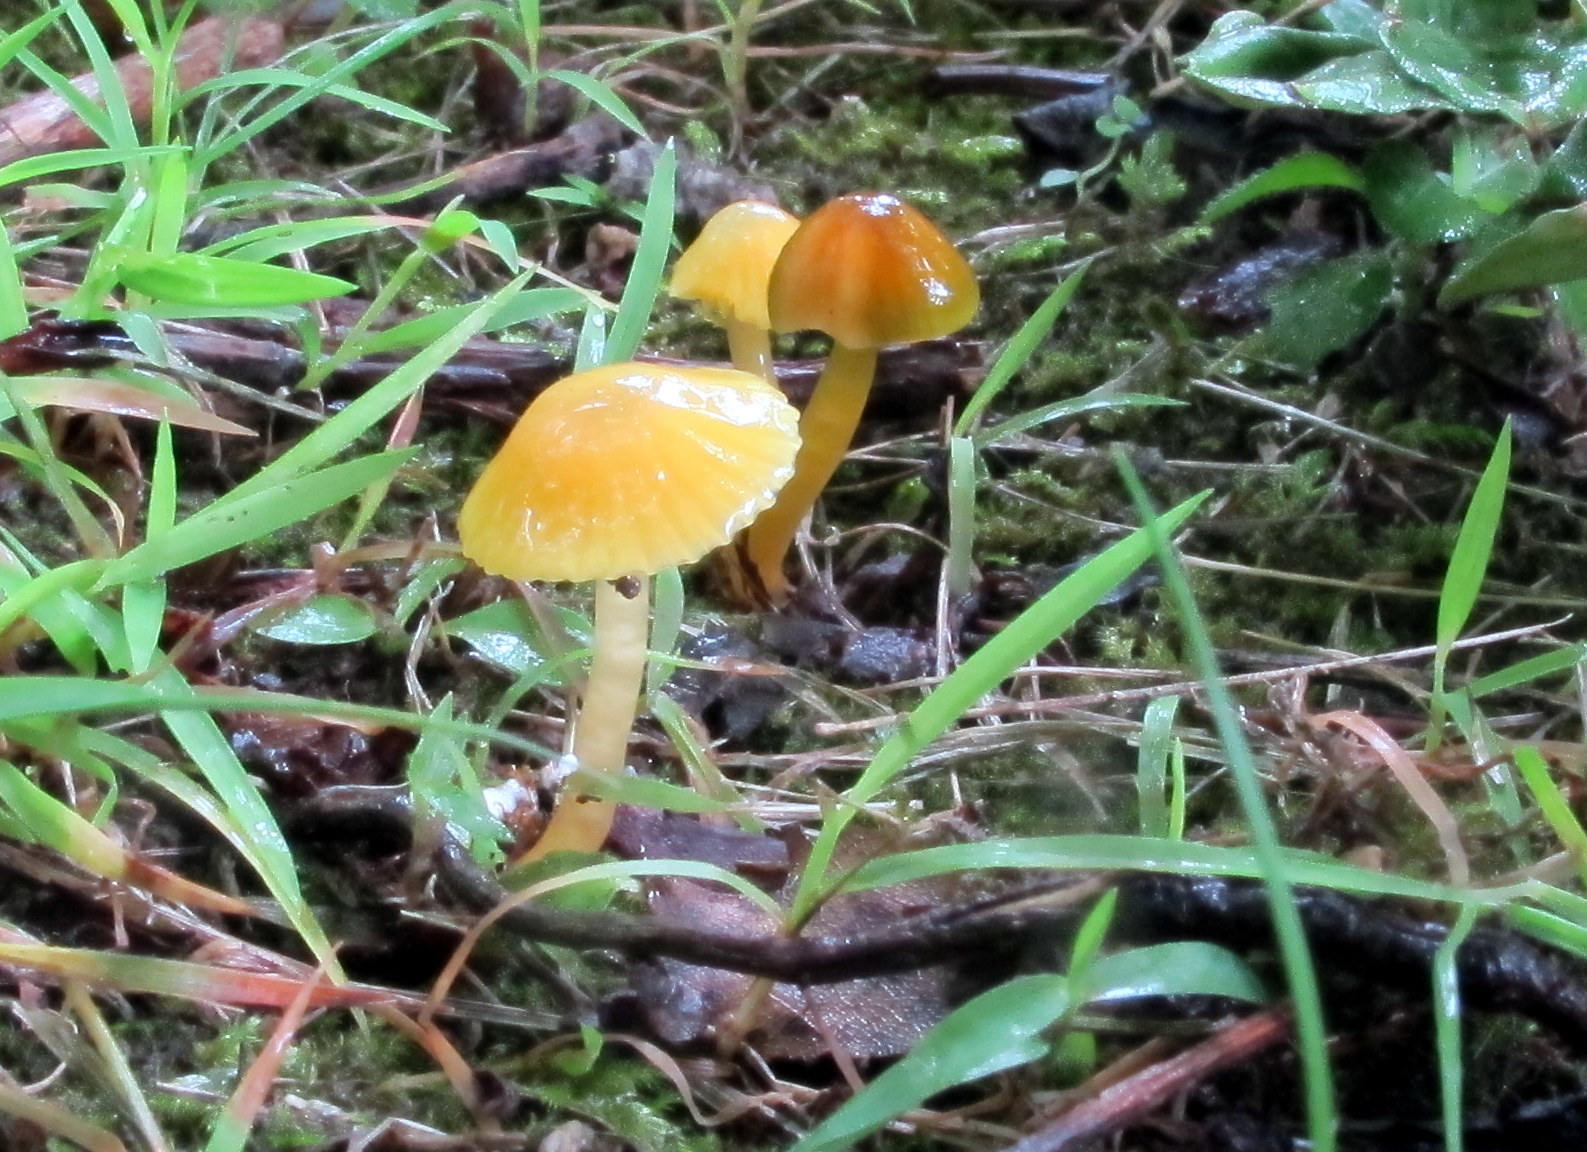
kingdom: Fungi
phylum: Basidiomycota
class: Agaricomycetes
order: Agaricales
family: Hygrophoraceae
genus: Gliophorus
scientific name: Gliophorus psittacinus
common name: Parrot wax-cap
